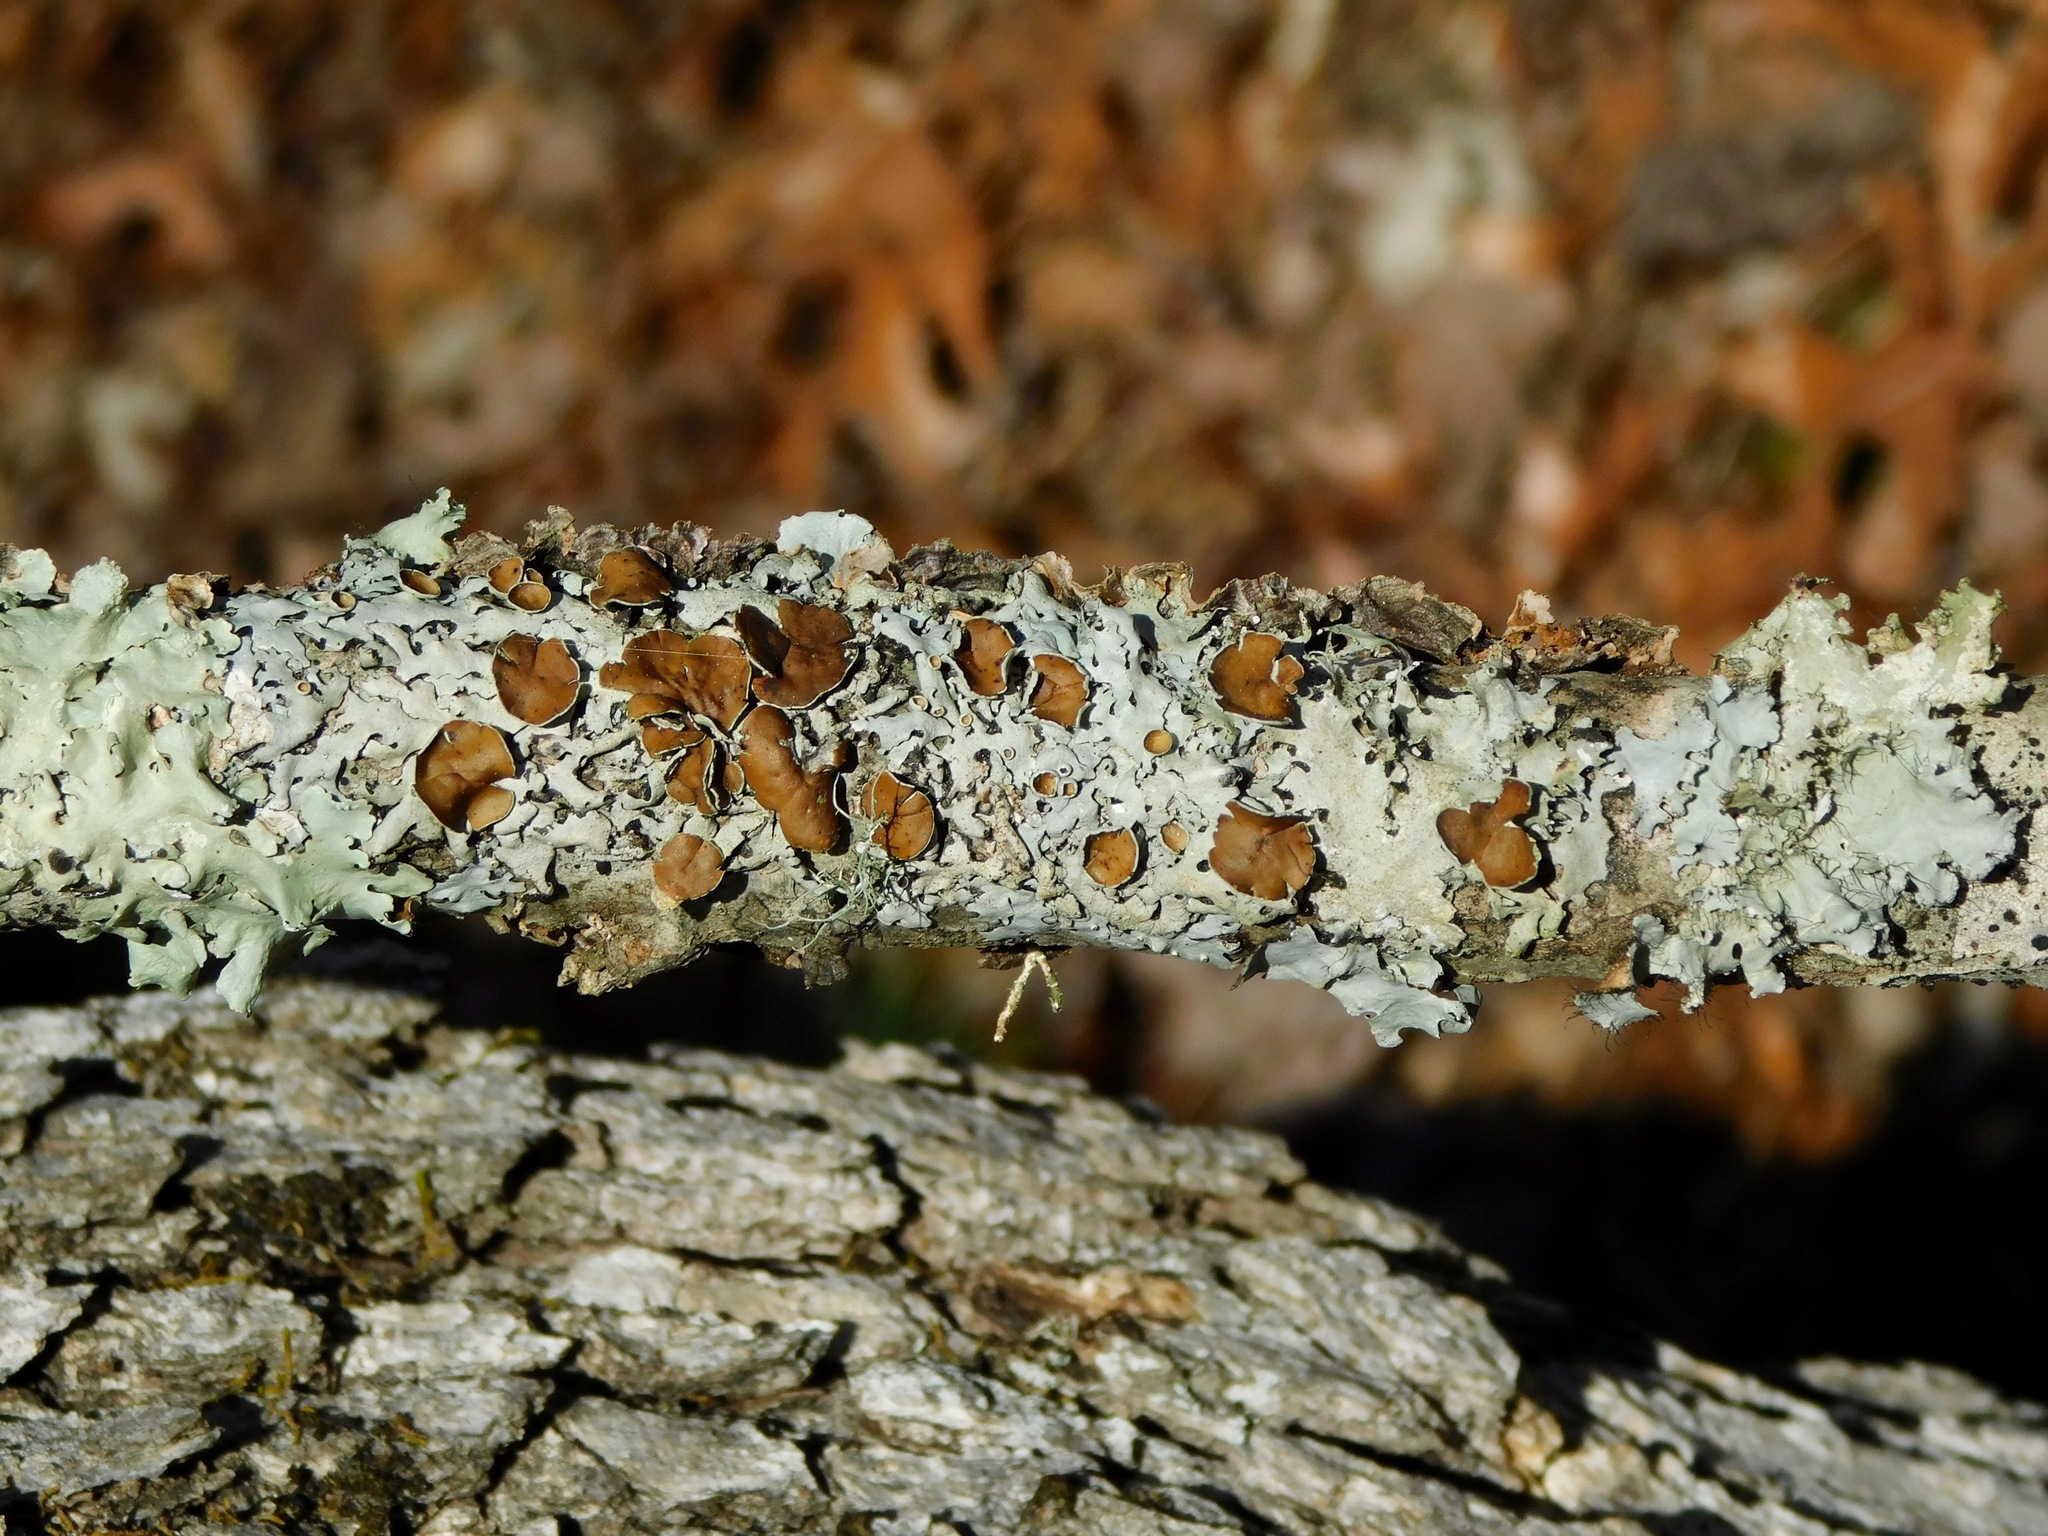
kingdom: Fungi
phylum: Ascomycota
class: Lecanoromycetes
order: Lecanorales
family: Parmeliaceae
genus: Myelochroa
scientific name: Myelochroa galbina
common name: Smooth axil-bristle lichen
